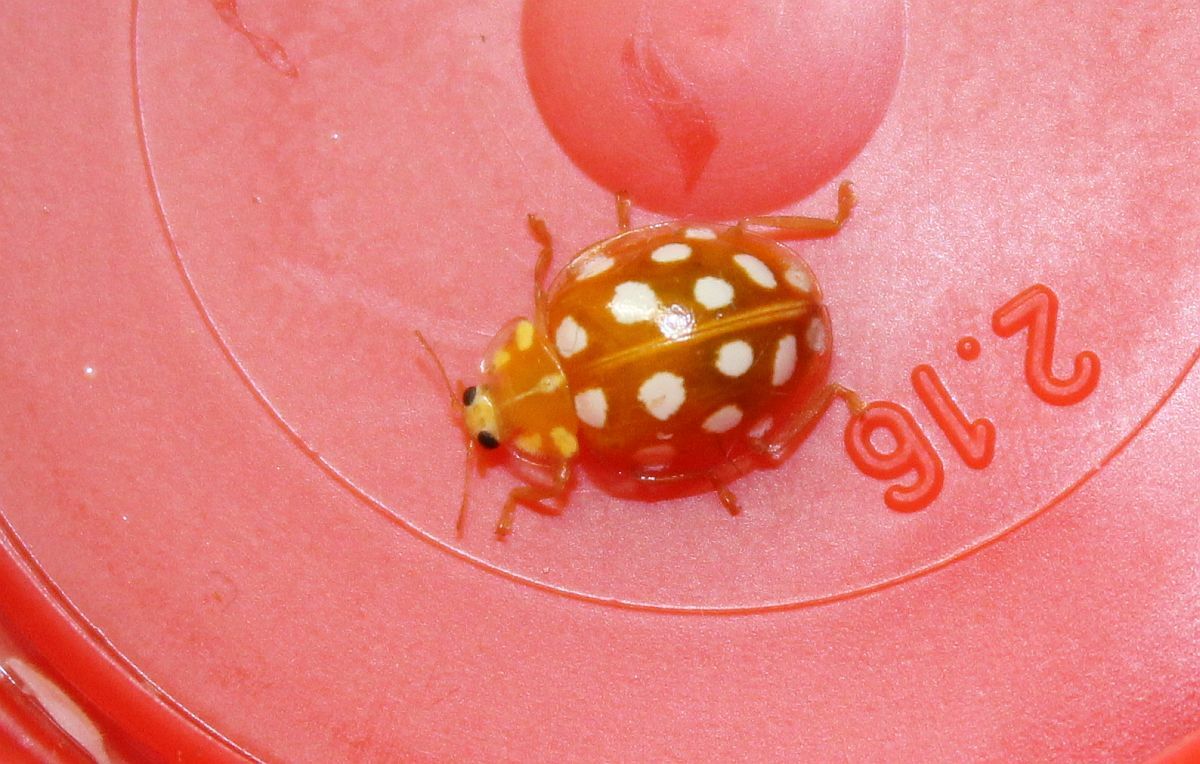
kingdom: Animalia
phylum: Arthropoda
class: Insecta
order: Coleoptera
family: Coccinellidae
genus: Halyzia
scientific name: Halyzia sedecimguttata
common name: Orange ladybird
